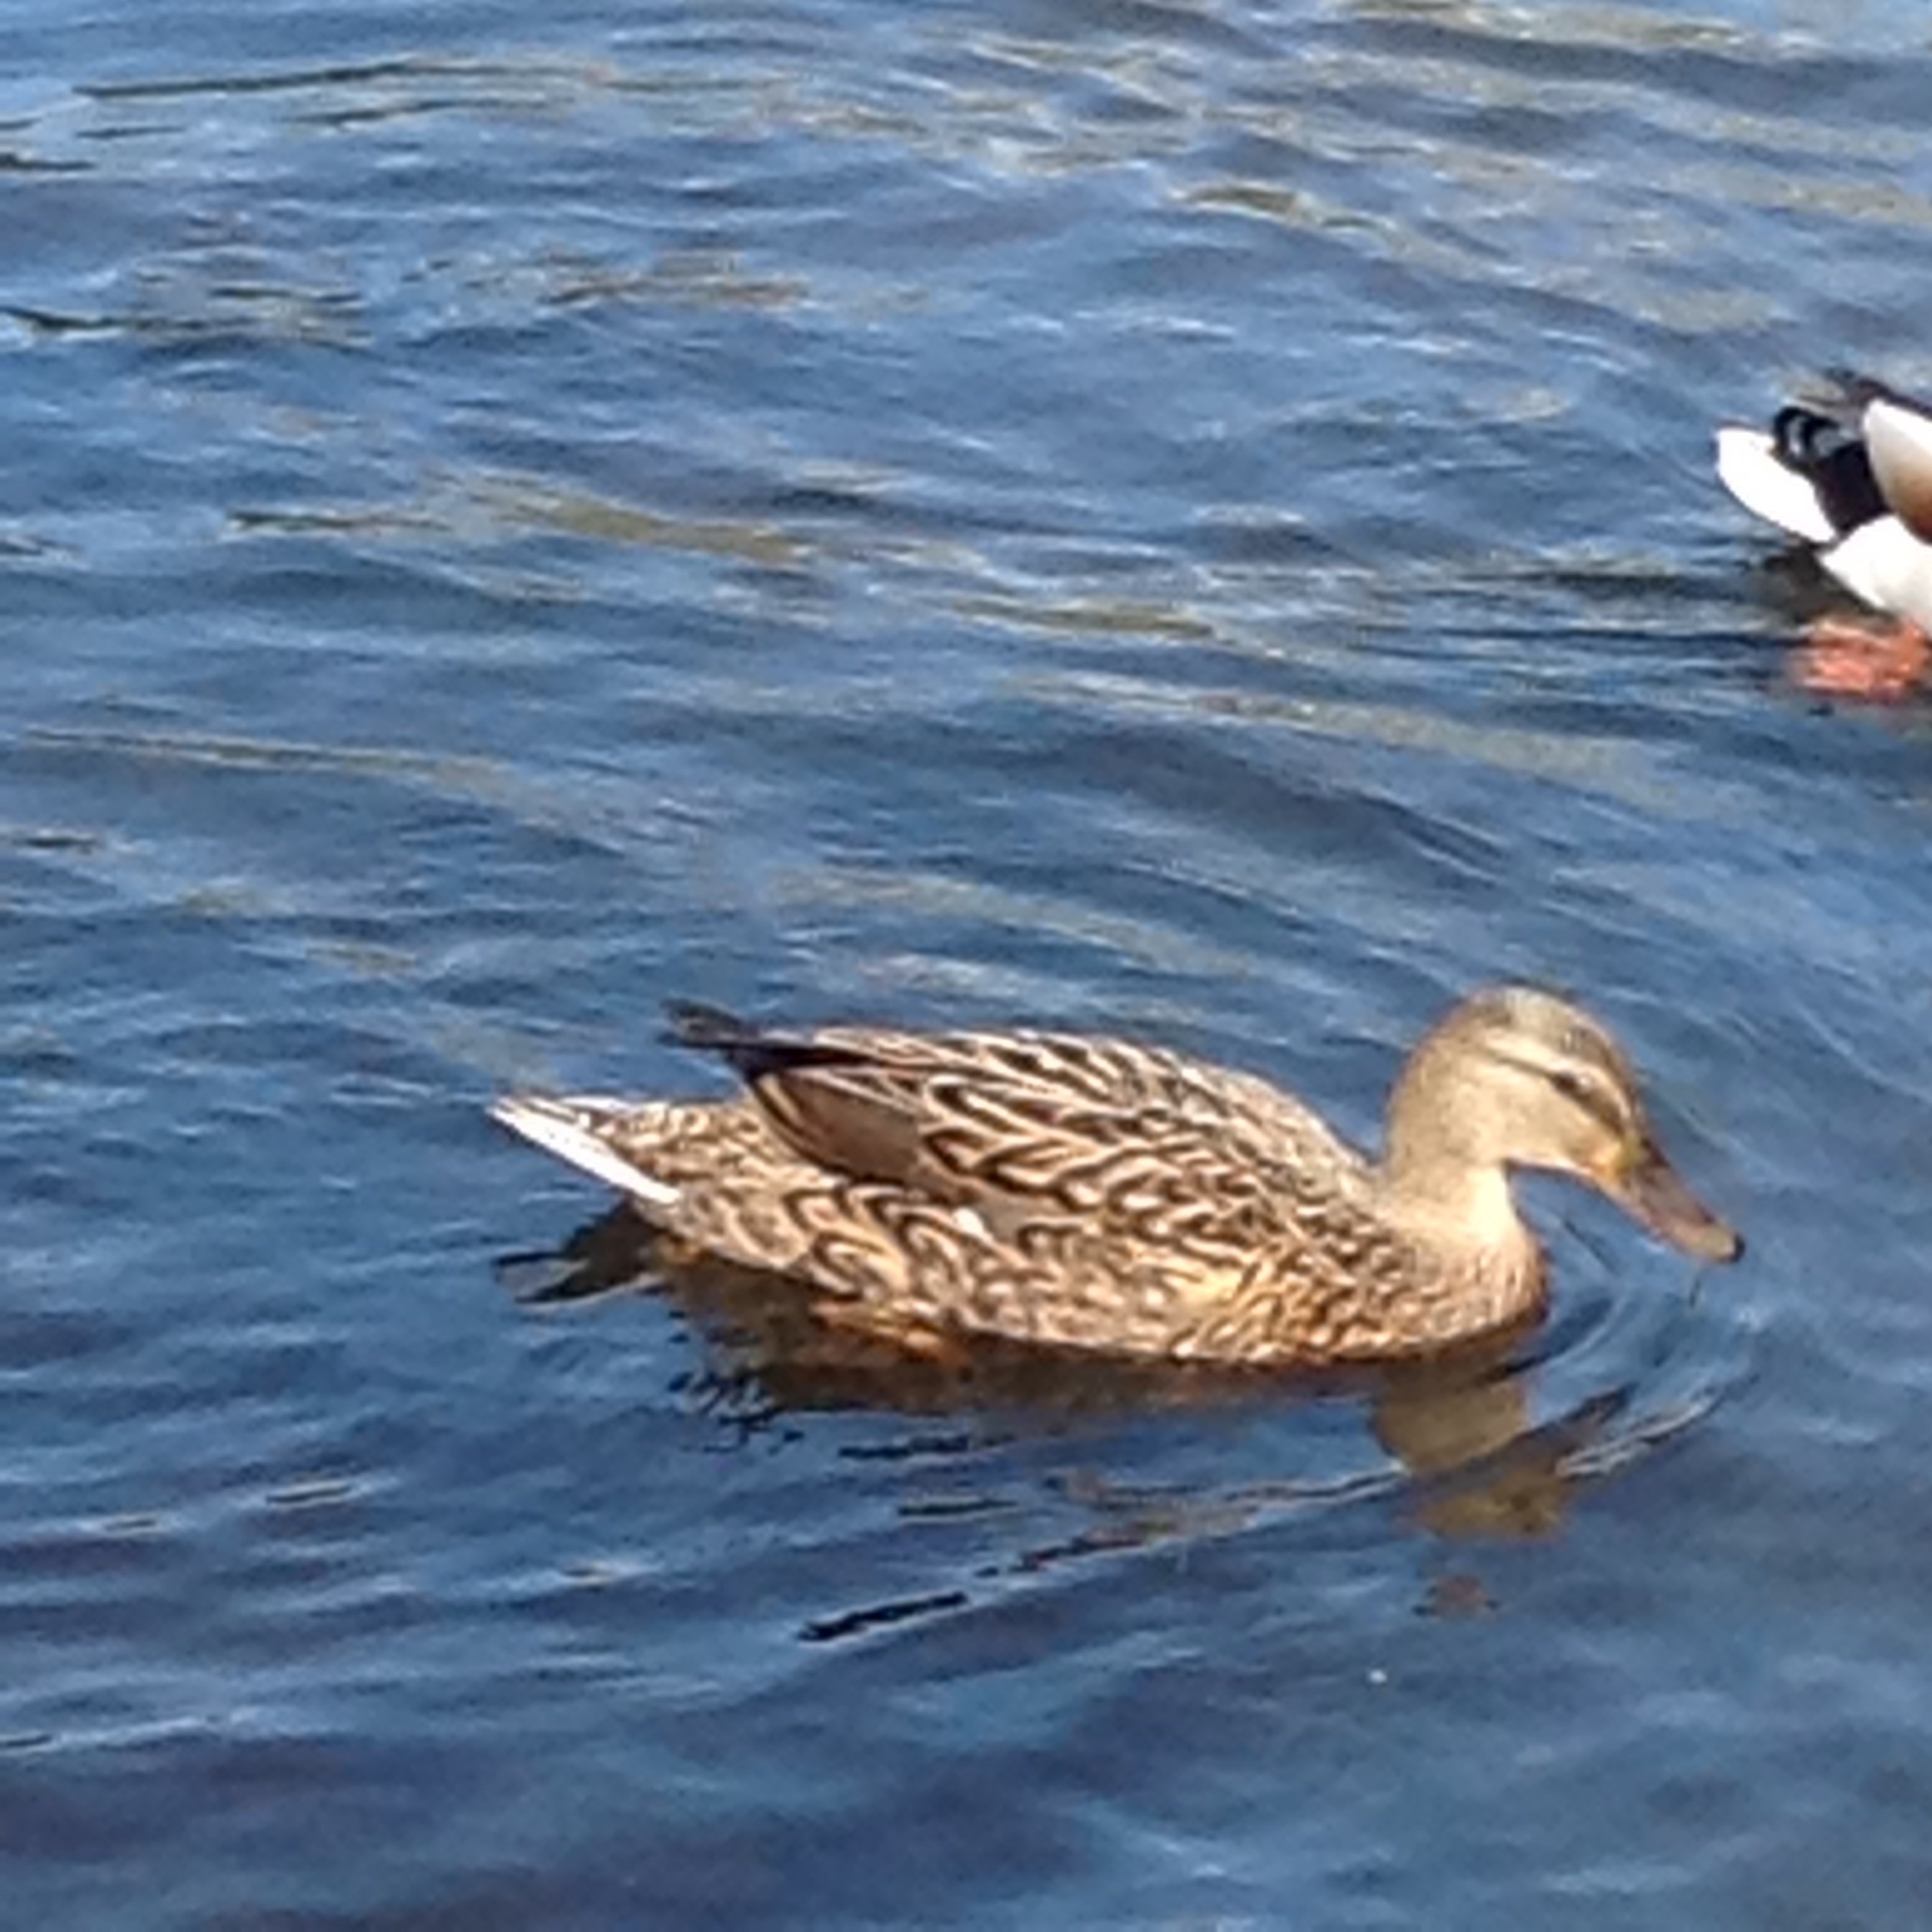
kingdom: Animalia
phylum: Chordata
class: Aves
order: Anseriformes
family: Anatidae
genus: Anas
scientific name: Anas platyrhynchos
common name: Mallard
